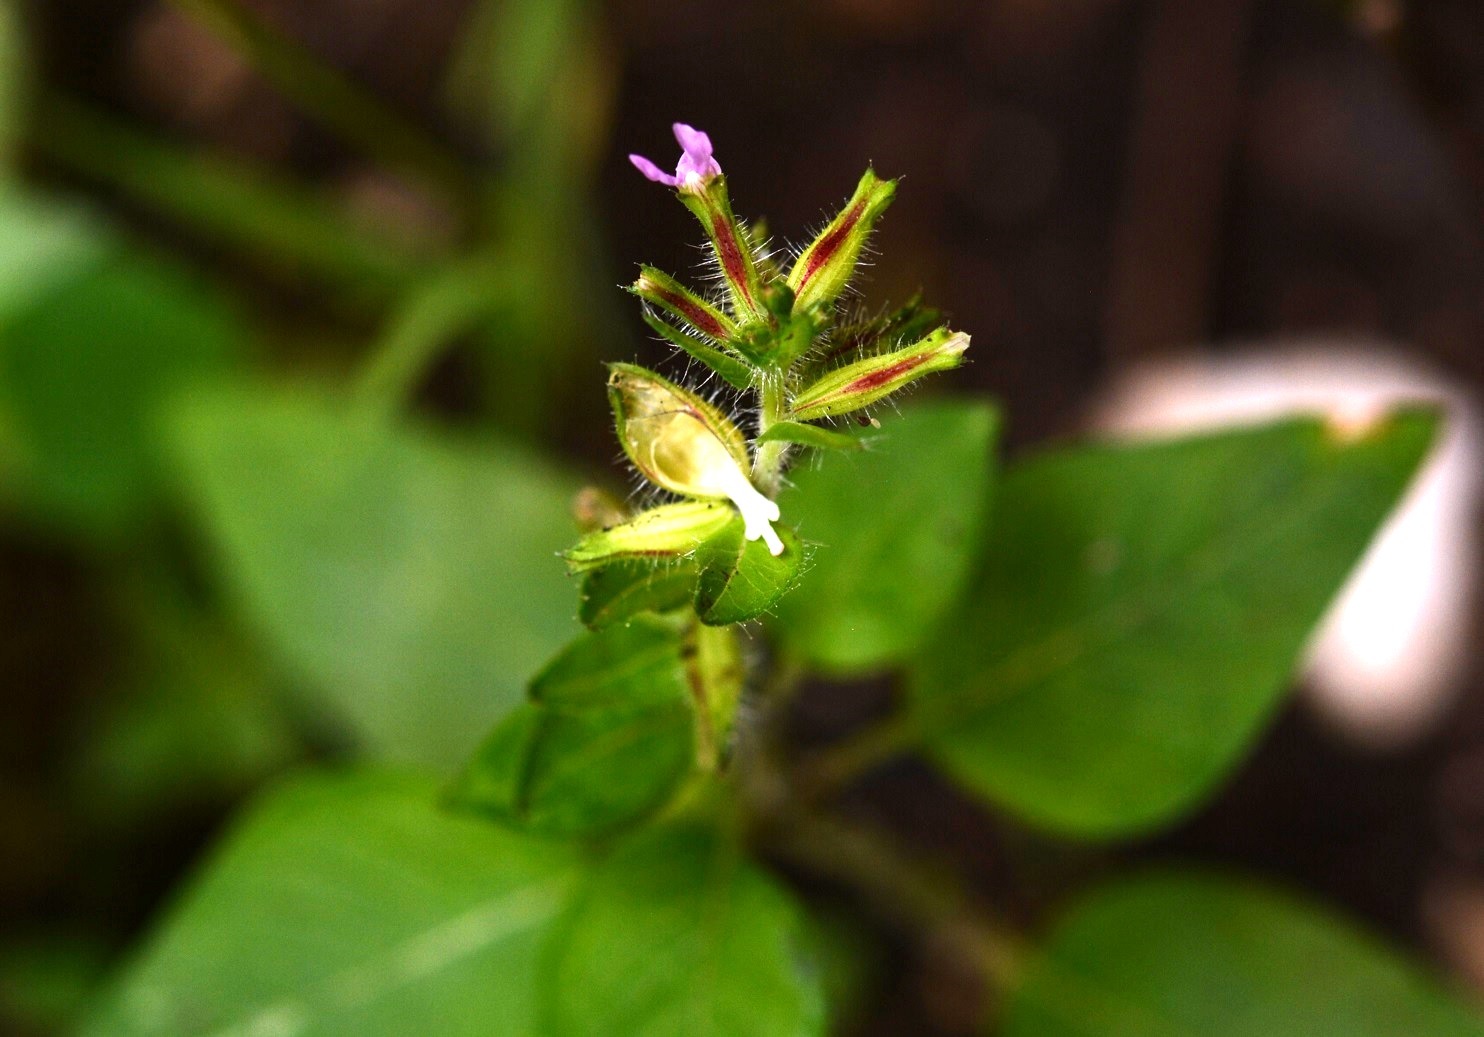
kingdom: Plantae
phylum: Tracheophyta
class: Magnoliopsida
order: Myrtales
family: Lythraceae
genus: Cuphea
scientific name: Cuphea wrightii
